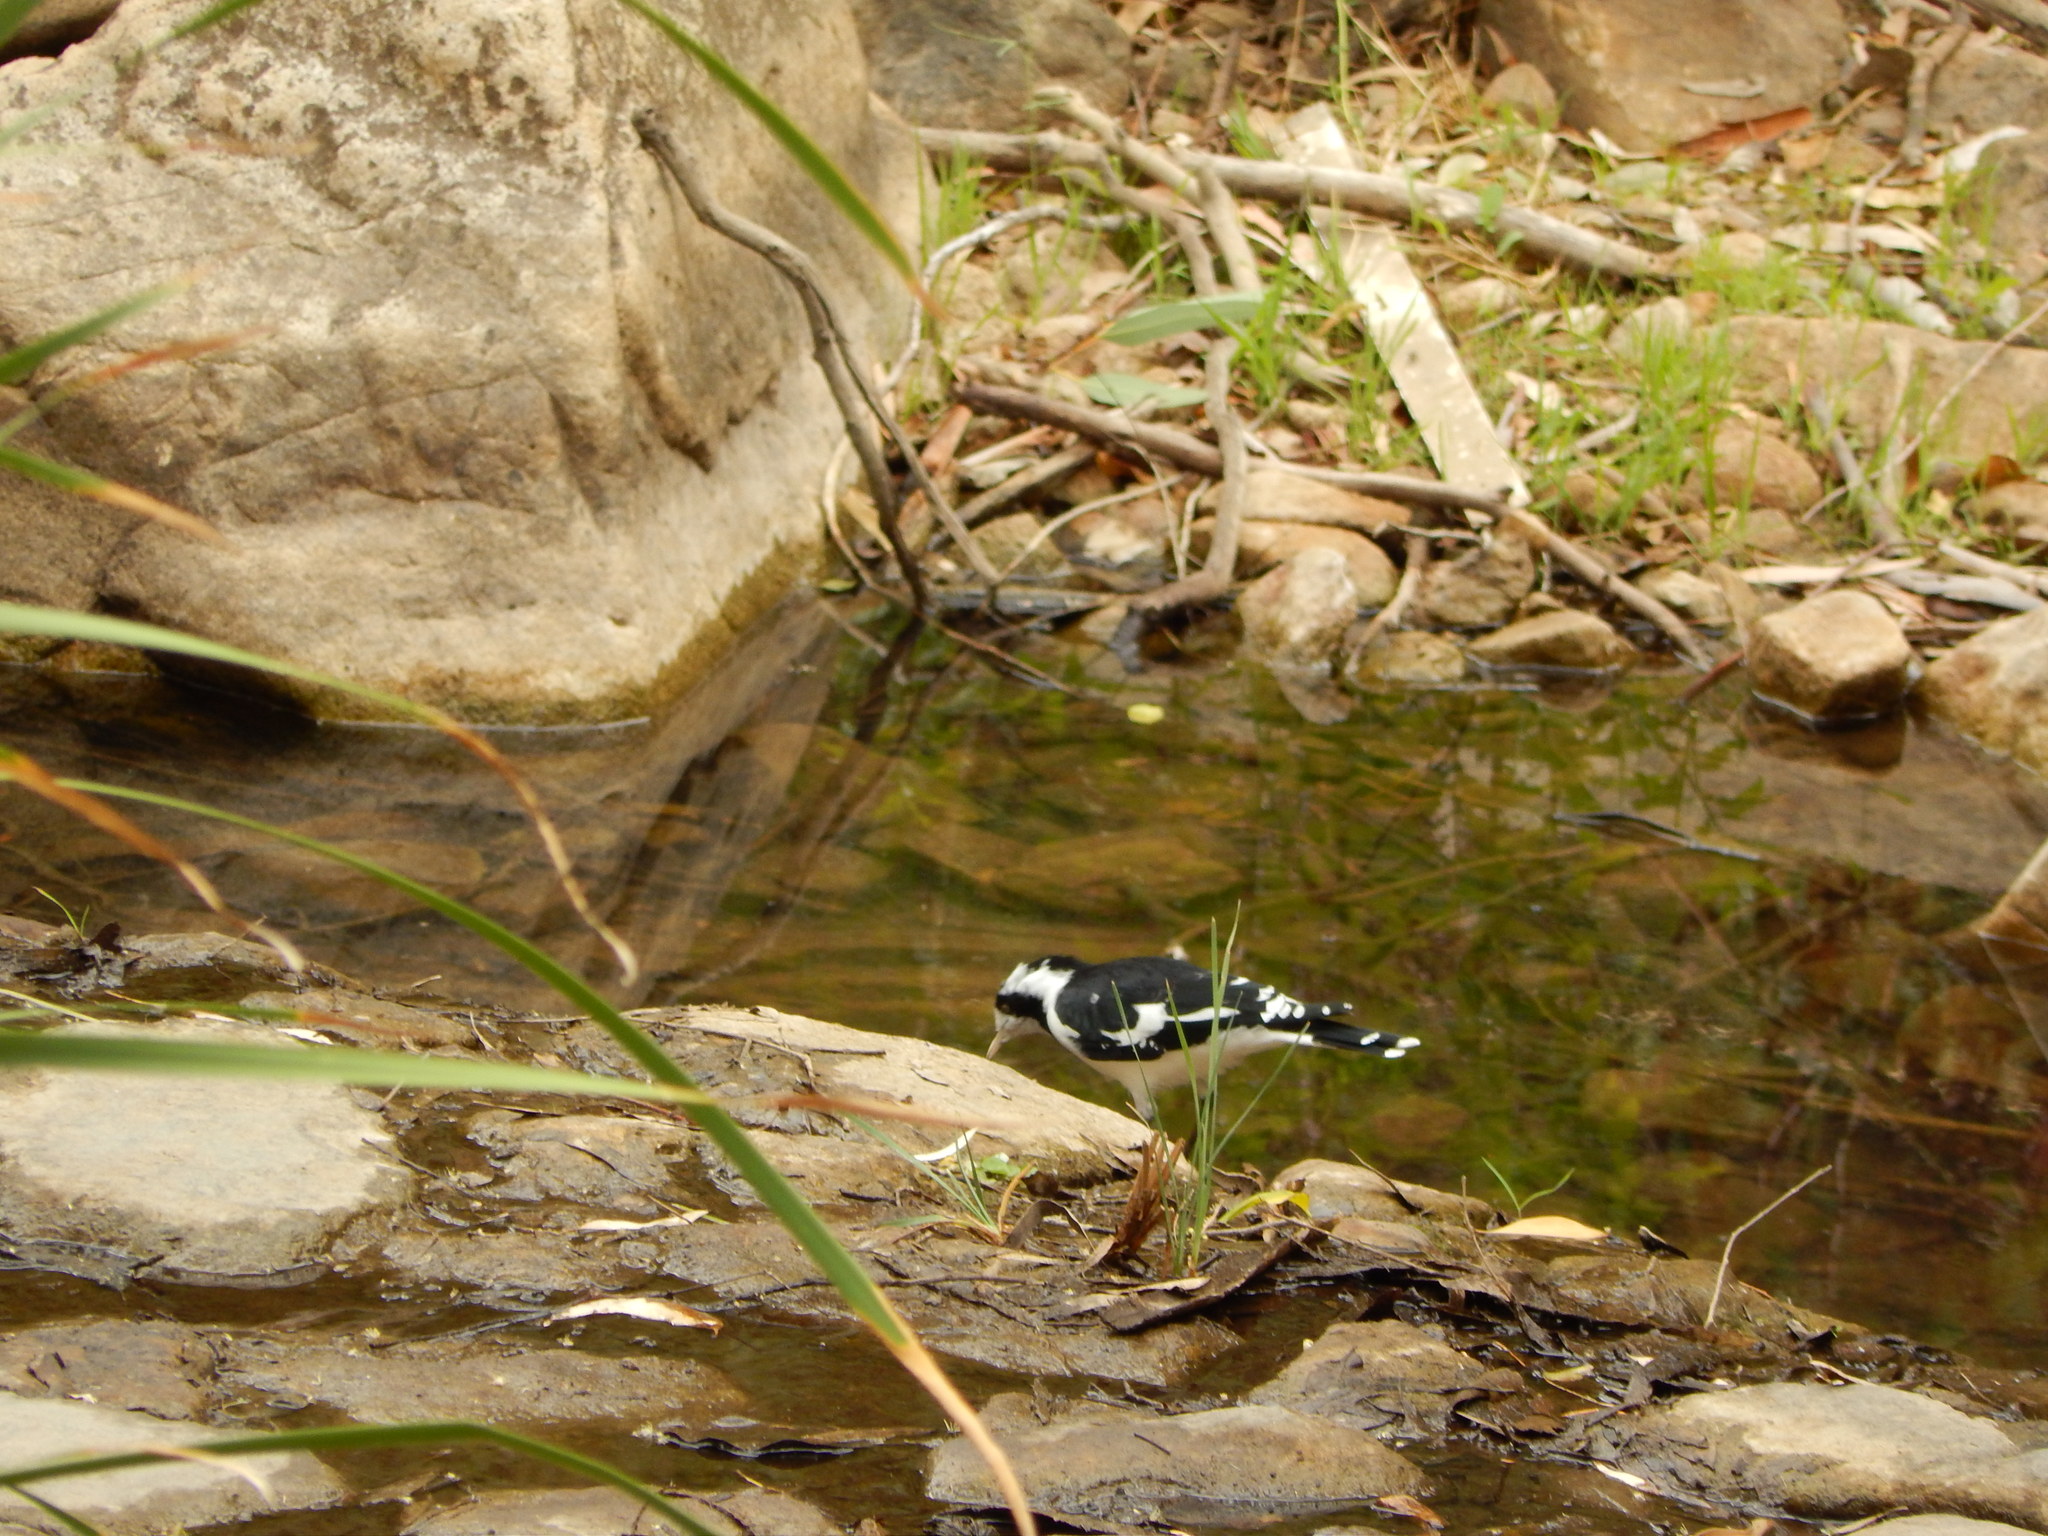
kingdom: Animalia
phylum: Chordata
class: Aves
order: Passeriformes
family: Monarchidae
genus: Grallina
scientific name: Grallina cyanoleuca
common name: Magpie-lark
